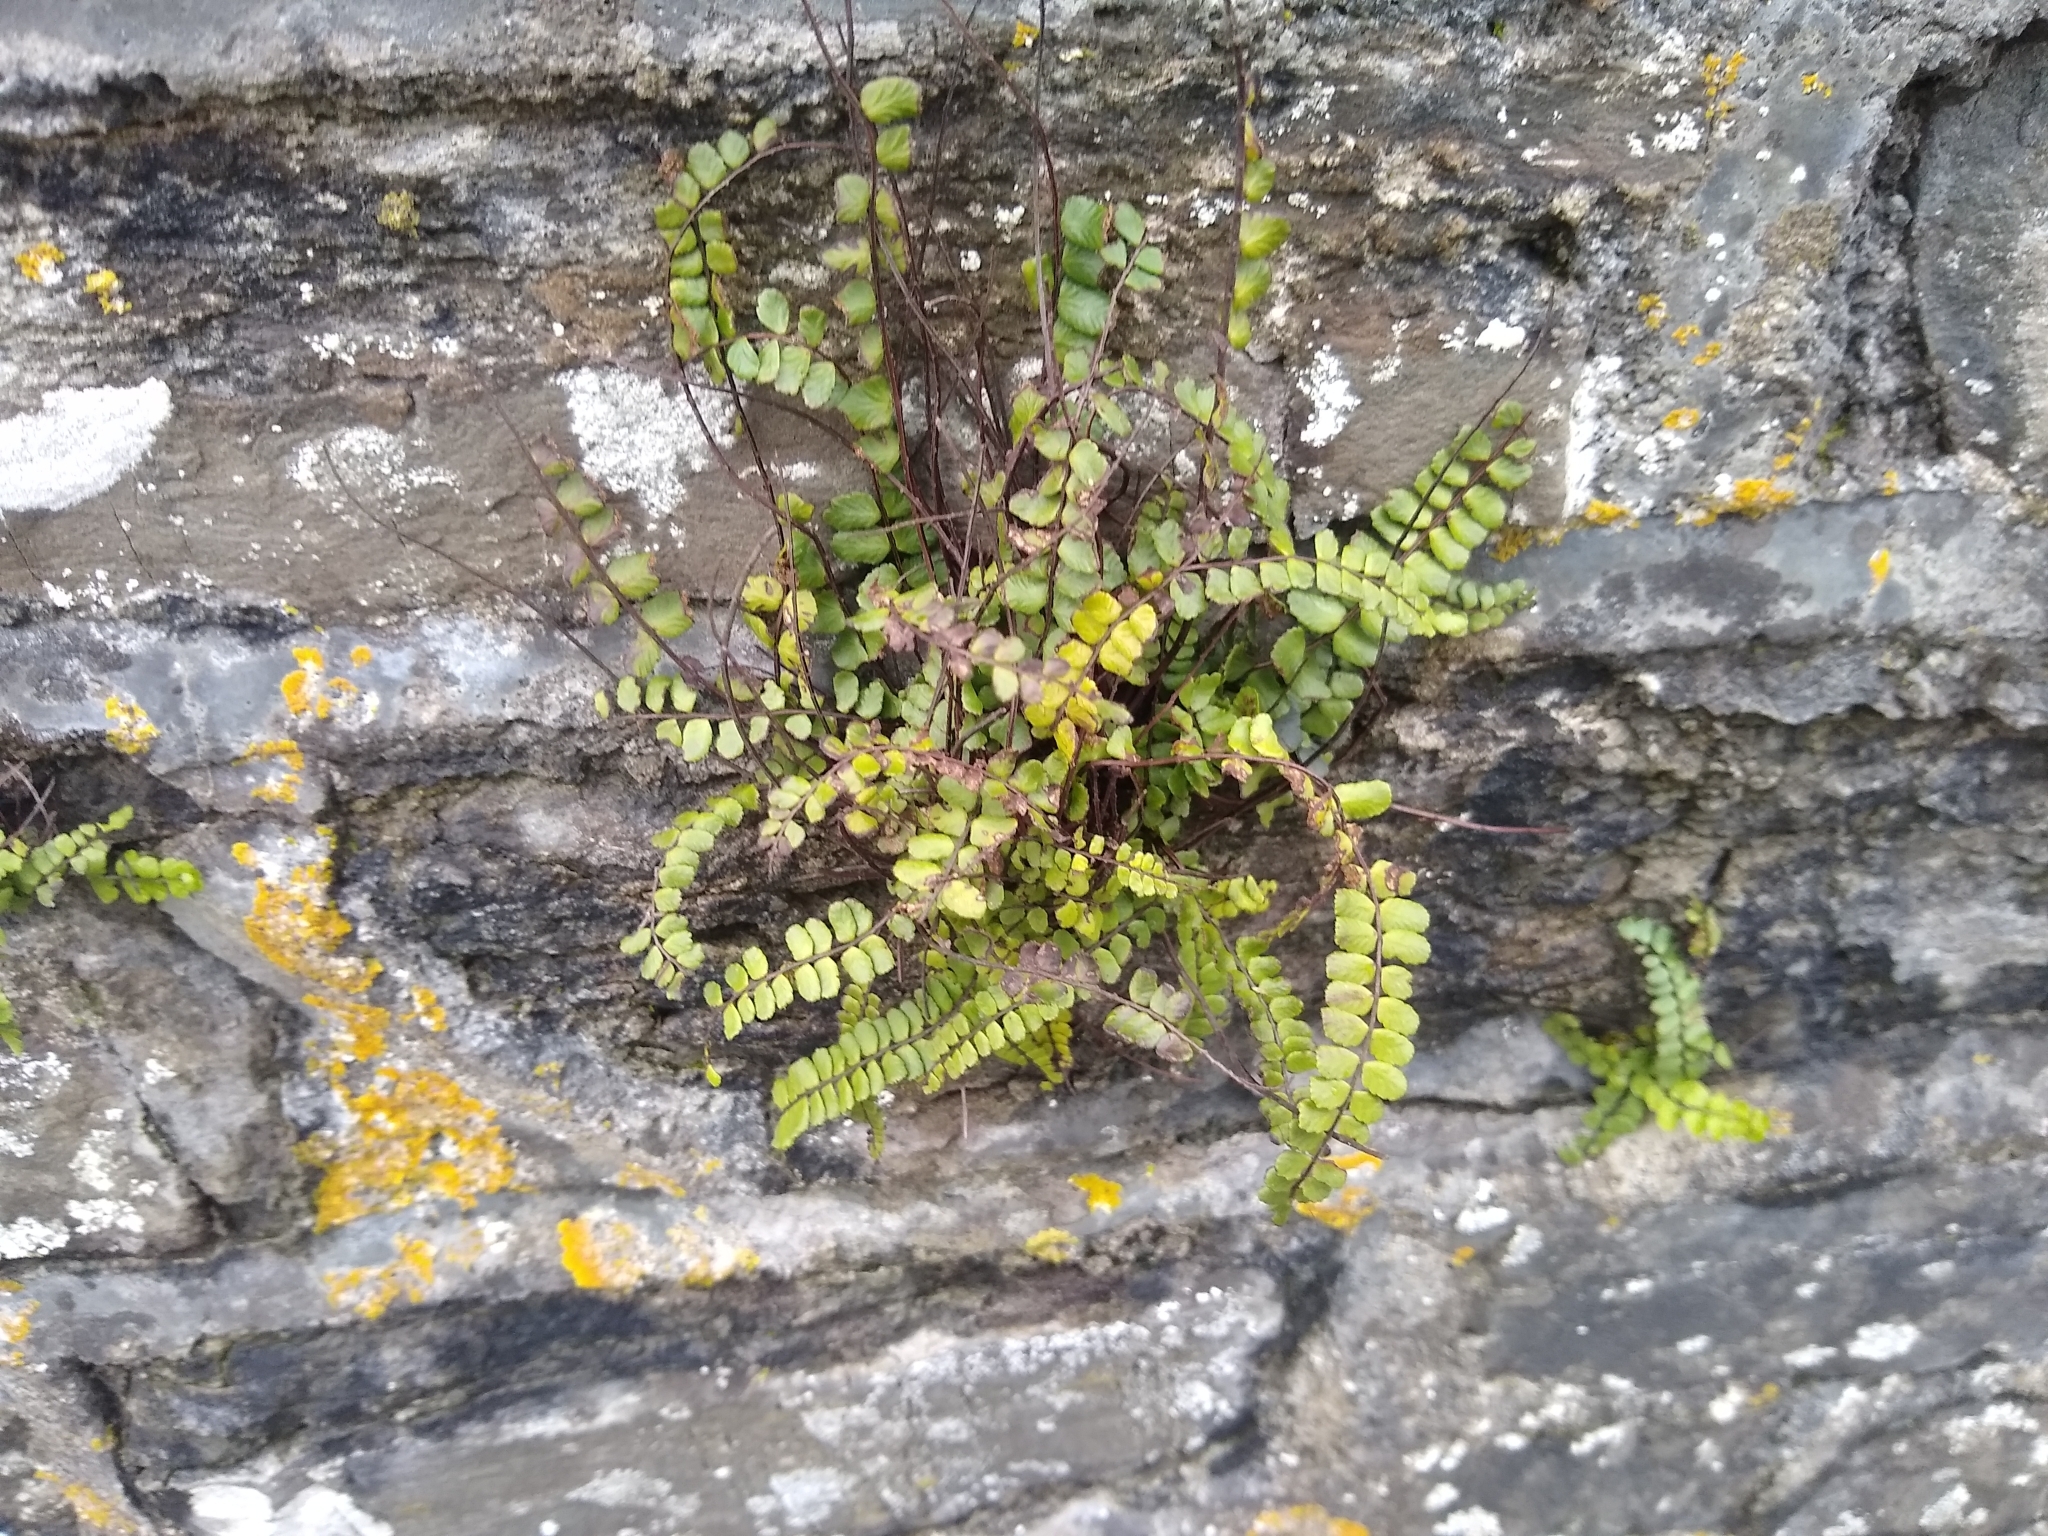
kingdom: Plantae
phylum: Tracheophyta
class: Polypodiopsida
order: Polypodiales
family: Aspleniaceae
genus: Asplenium
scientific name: Asplenium trichomanes
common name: Maidenhair spleenwort
